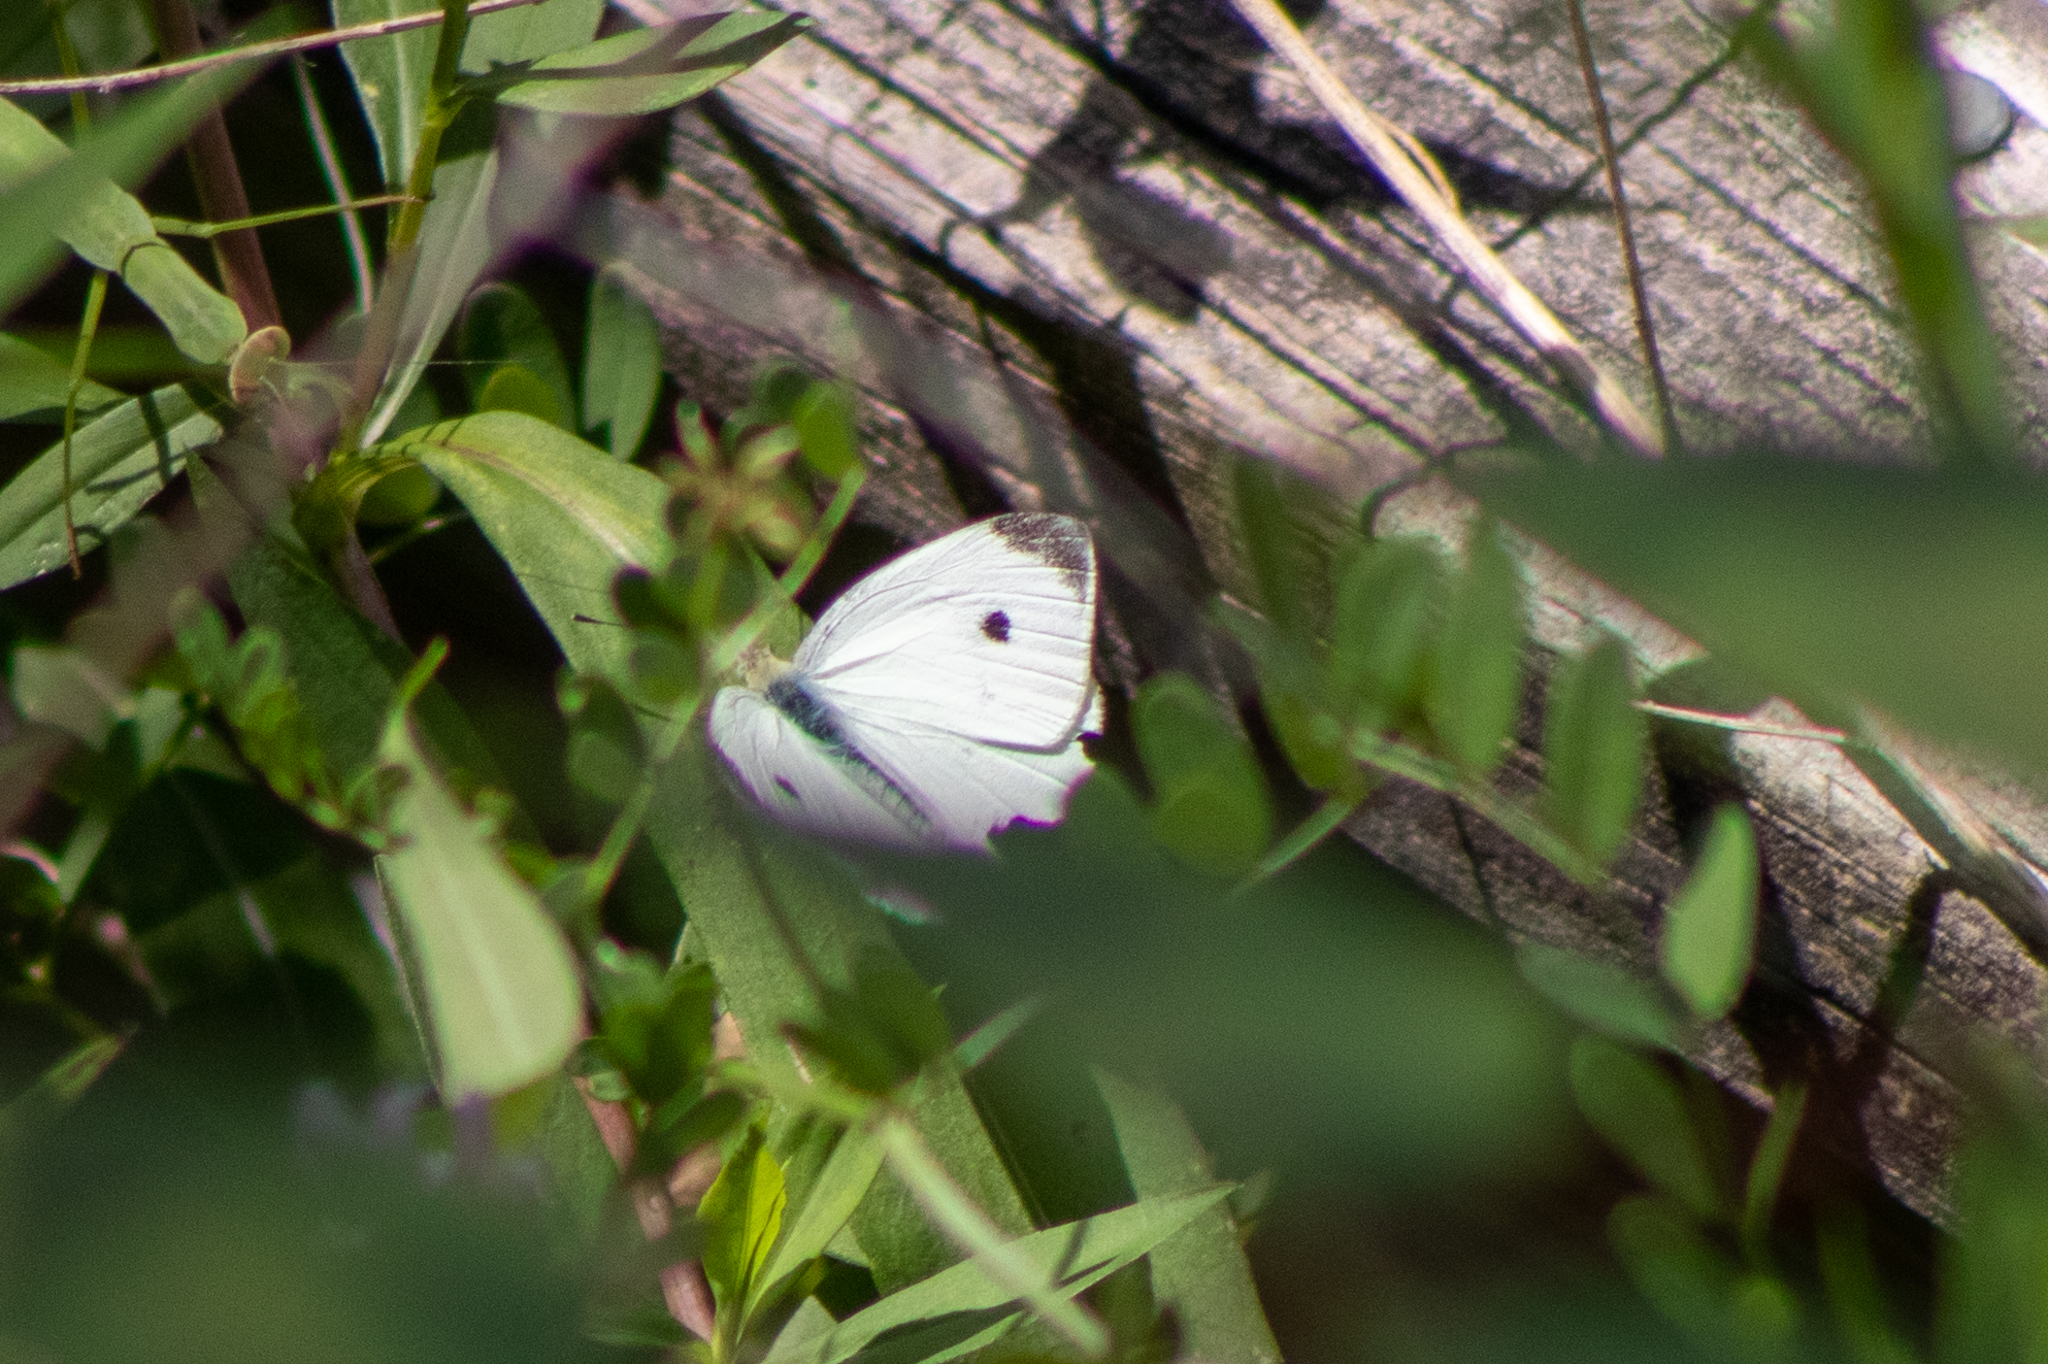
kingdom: Animalia
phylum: Arthropoda
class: Insecta
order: Lepidoptera
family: Pieridae
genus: Pieris
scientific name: Pieris rapae
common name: Small white
